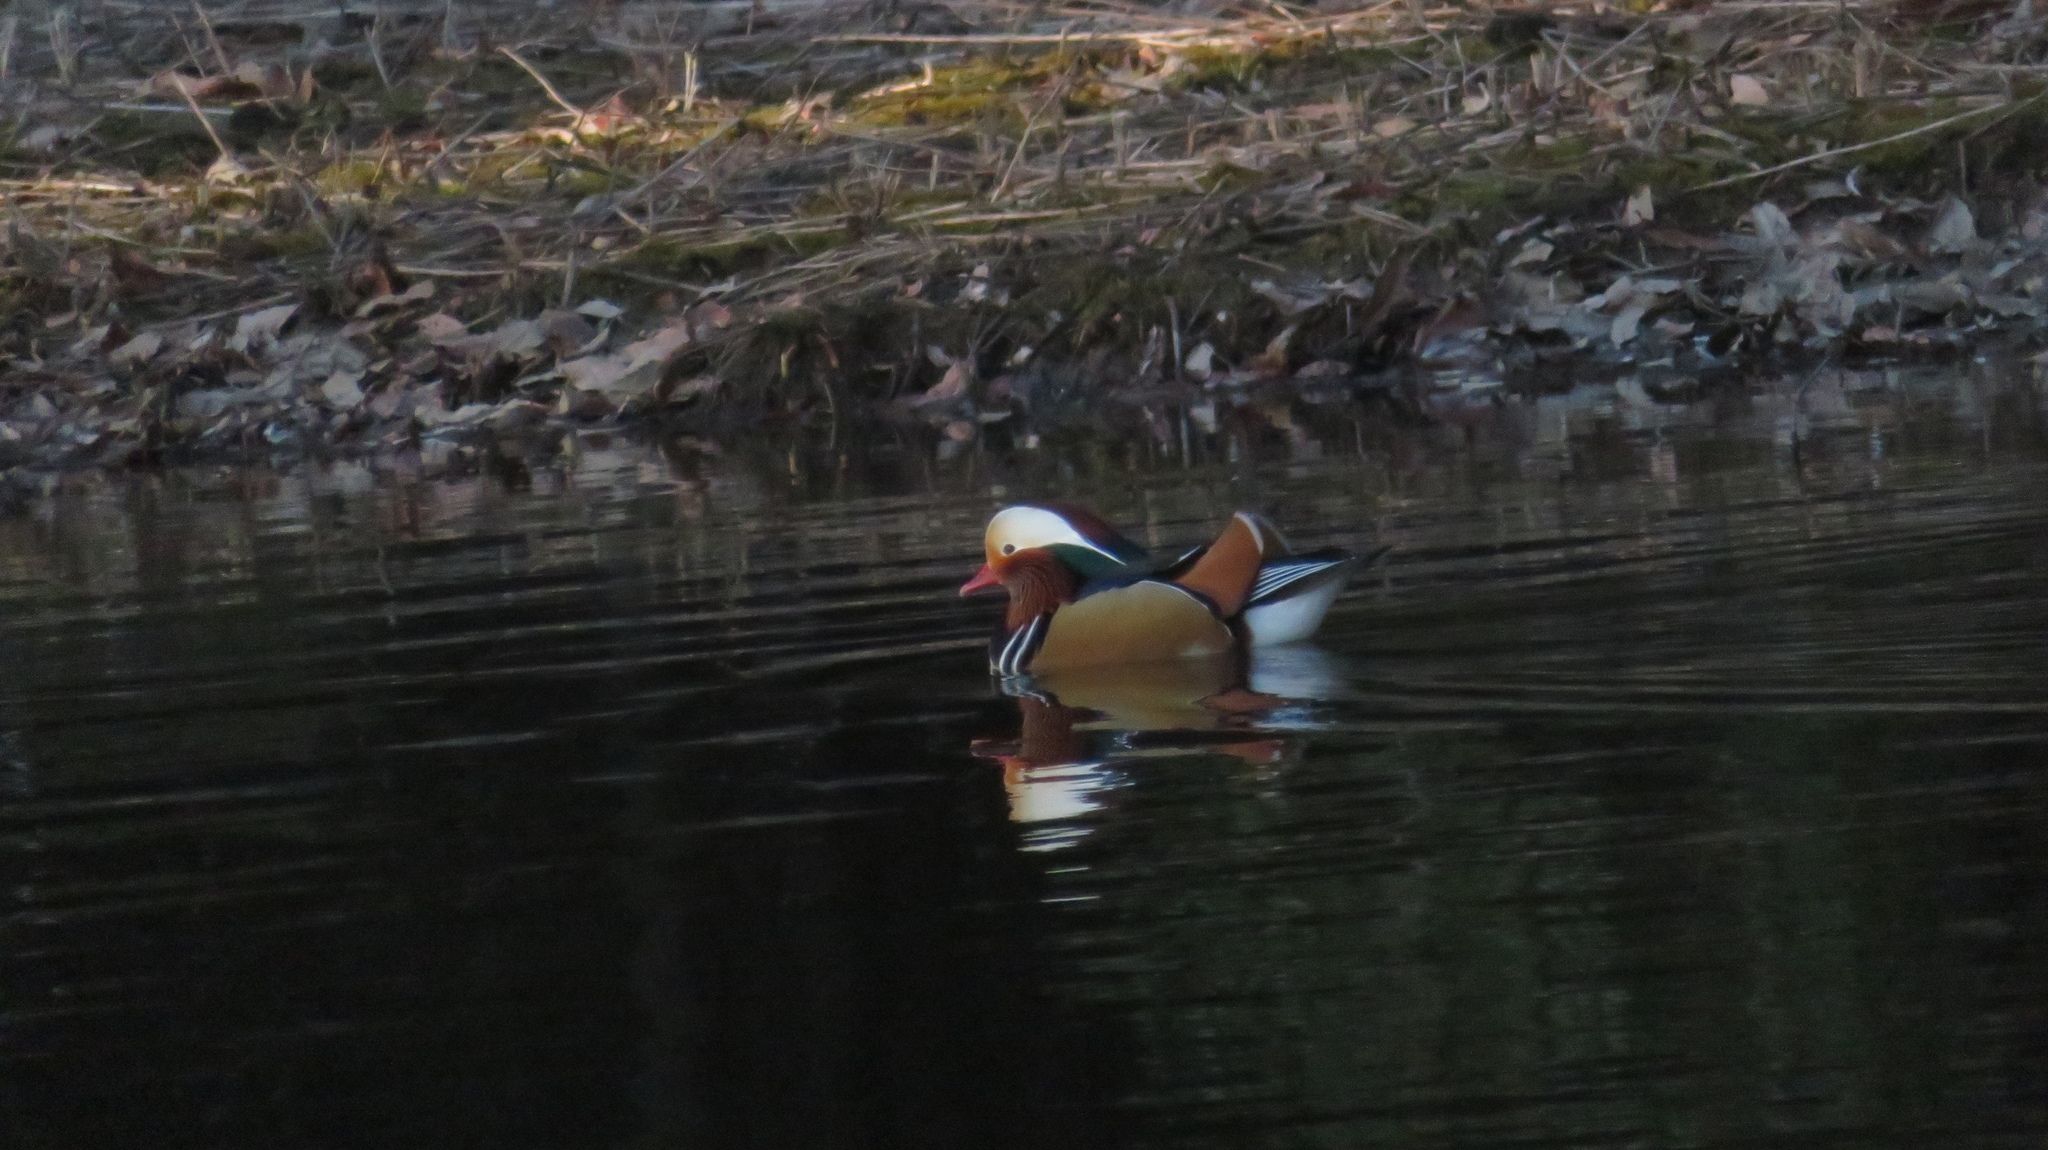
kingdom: Animalia
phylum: Chordata
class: Aves
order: Anseriformes
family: Anatidae
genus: Aix
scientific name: Aix galericulata
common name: Mandarin duck
